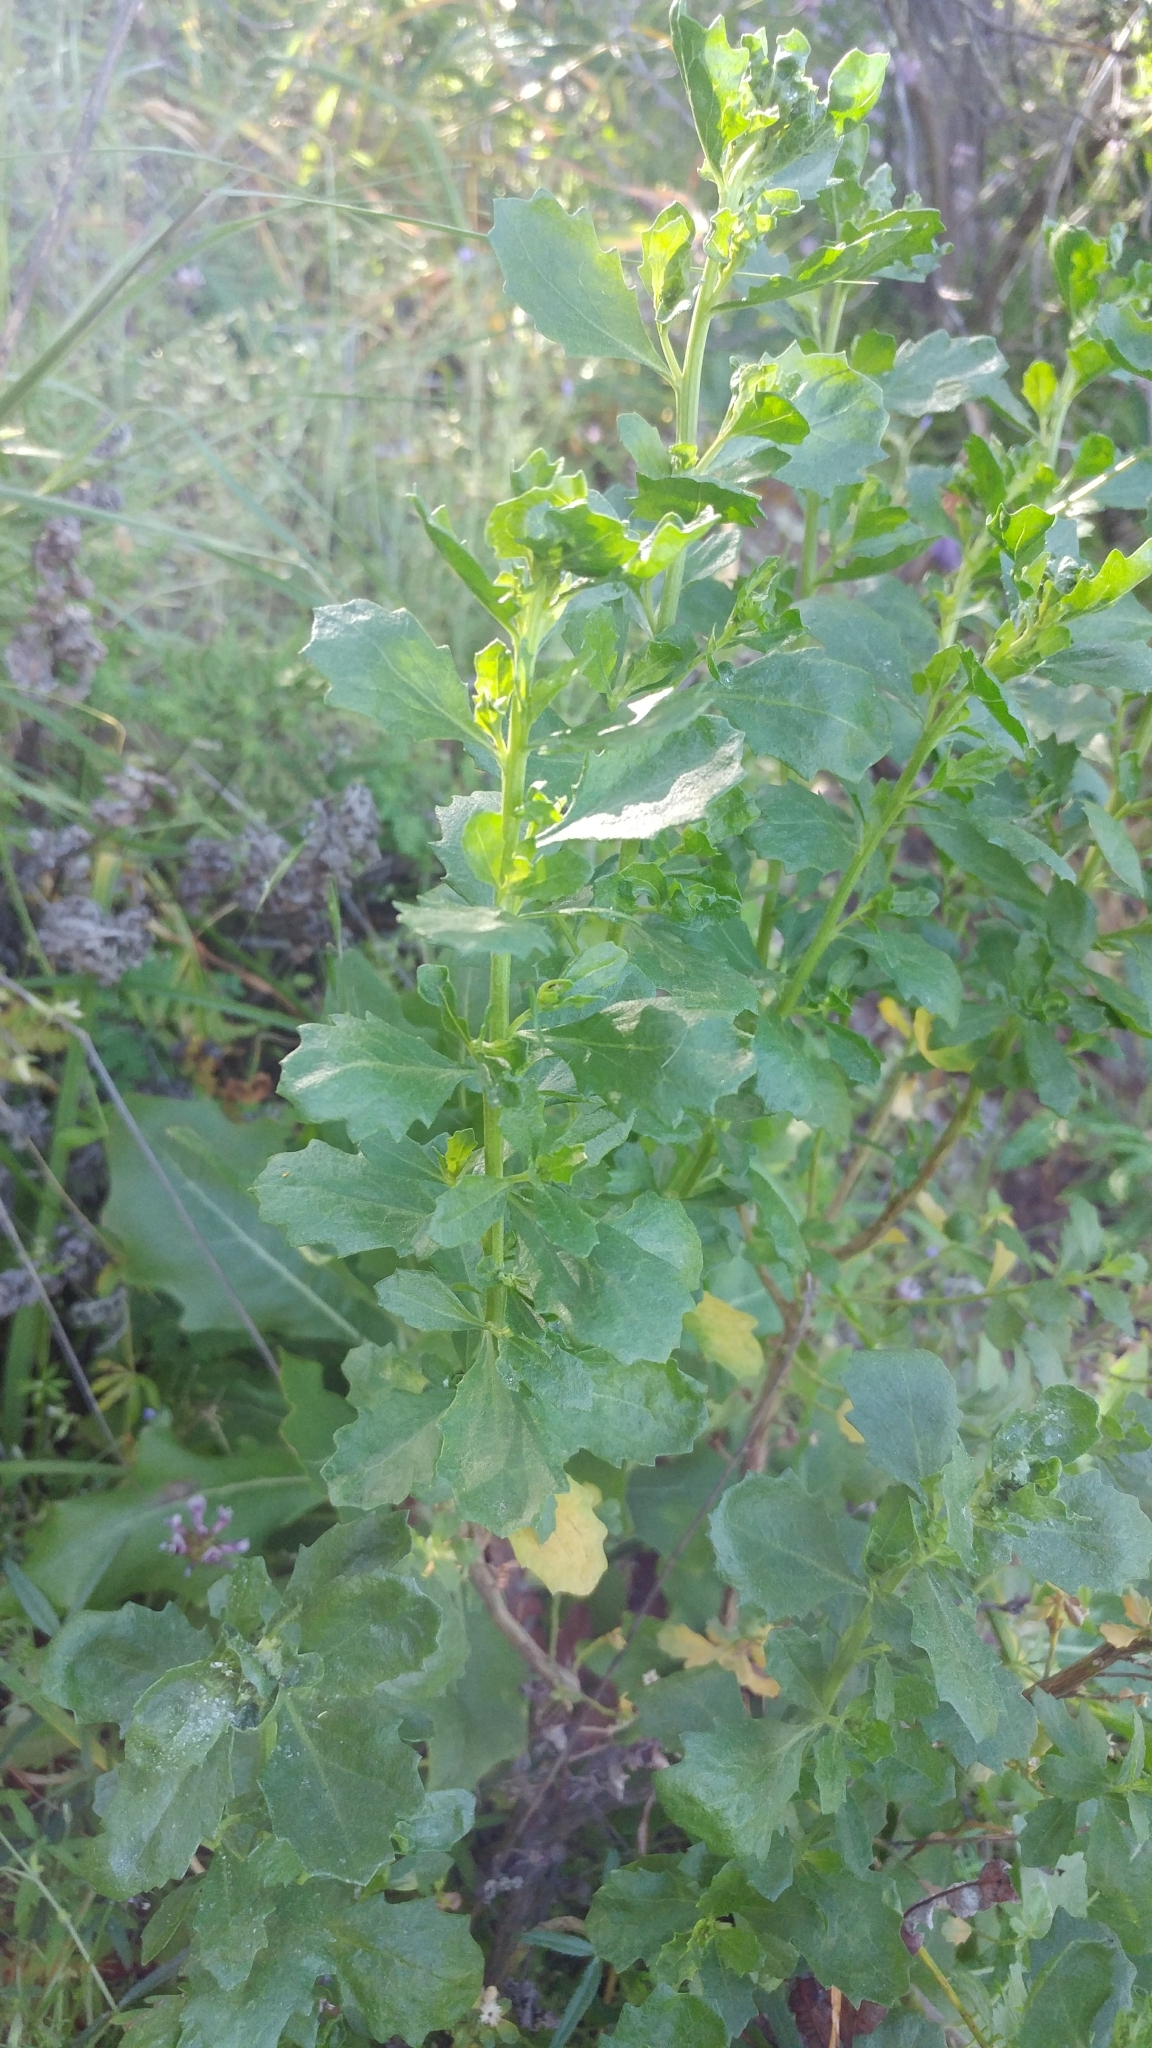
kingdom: Plantae
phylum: Tracheophyta
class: Magnoliopsida
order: Asterales
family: Asteraceae
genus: Baccharis
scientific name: Baccharis pilularis
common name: Coyotebrush
